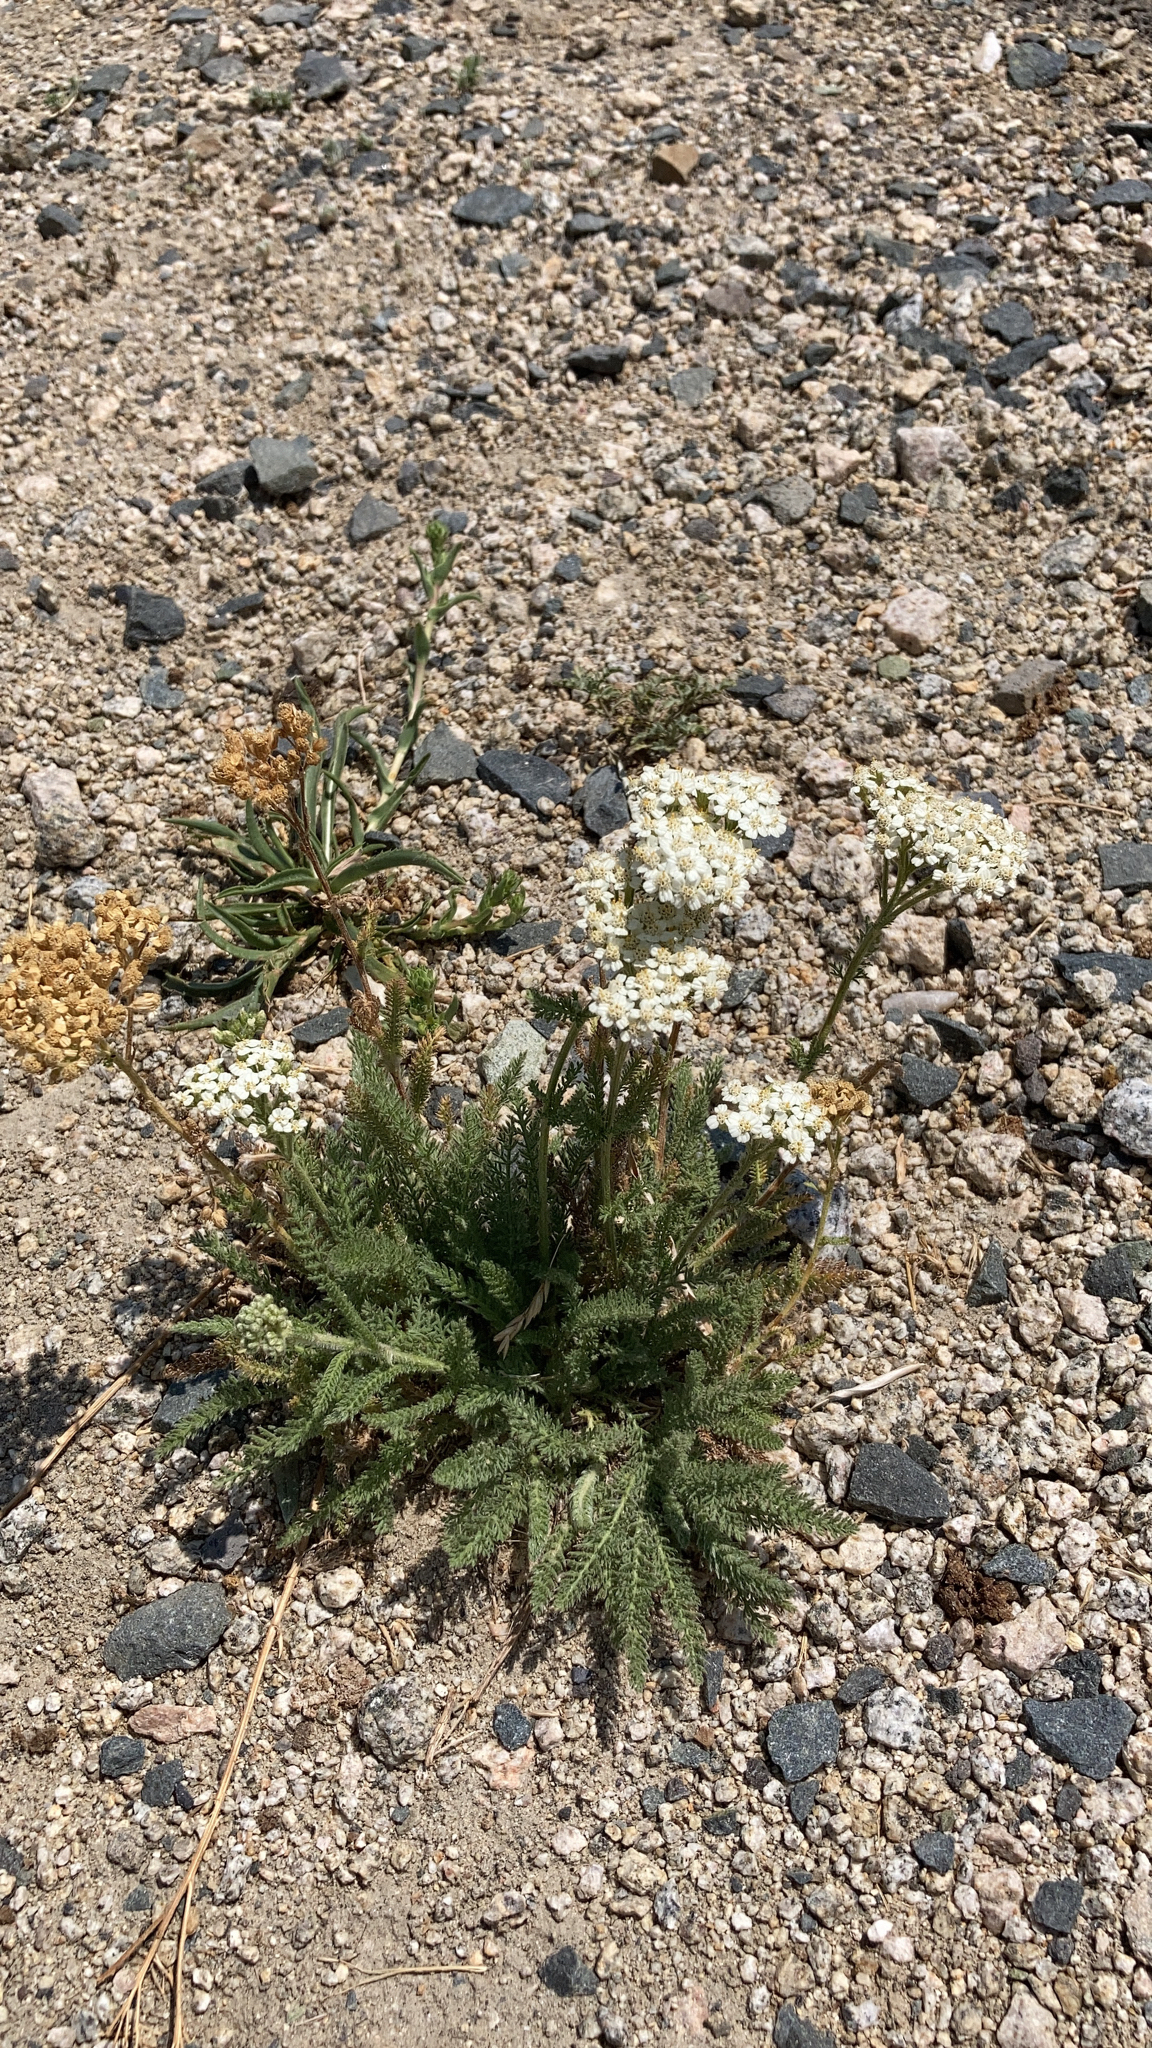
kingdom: Plantae
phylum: Tracheophyta
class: Magnoliopsida
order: Asterales
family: Asteraceae
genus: Achillea
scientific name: Achillea millefolium
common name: Yarrow
